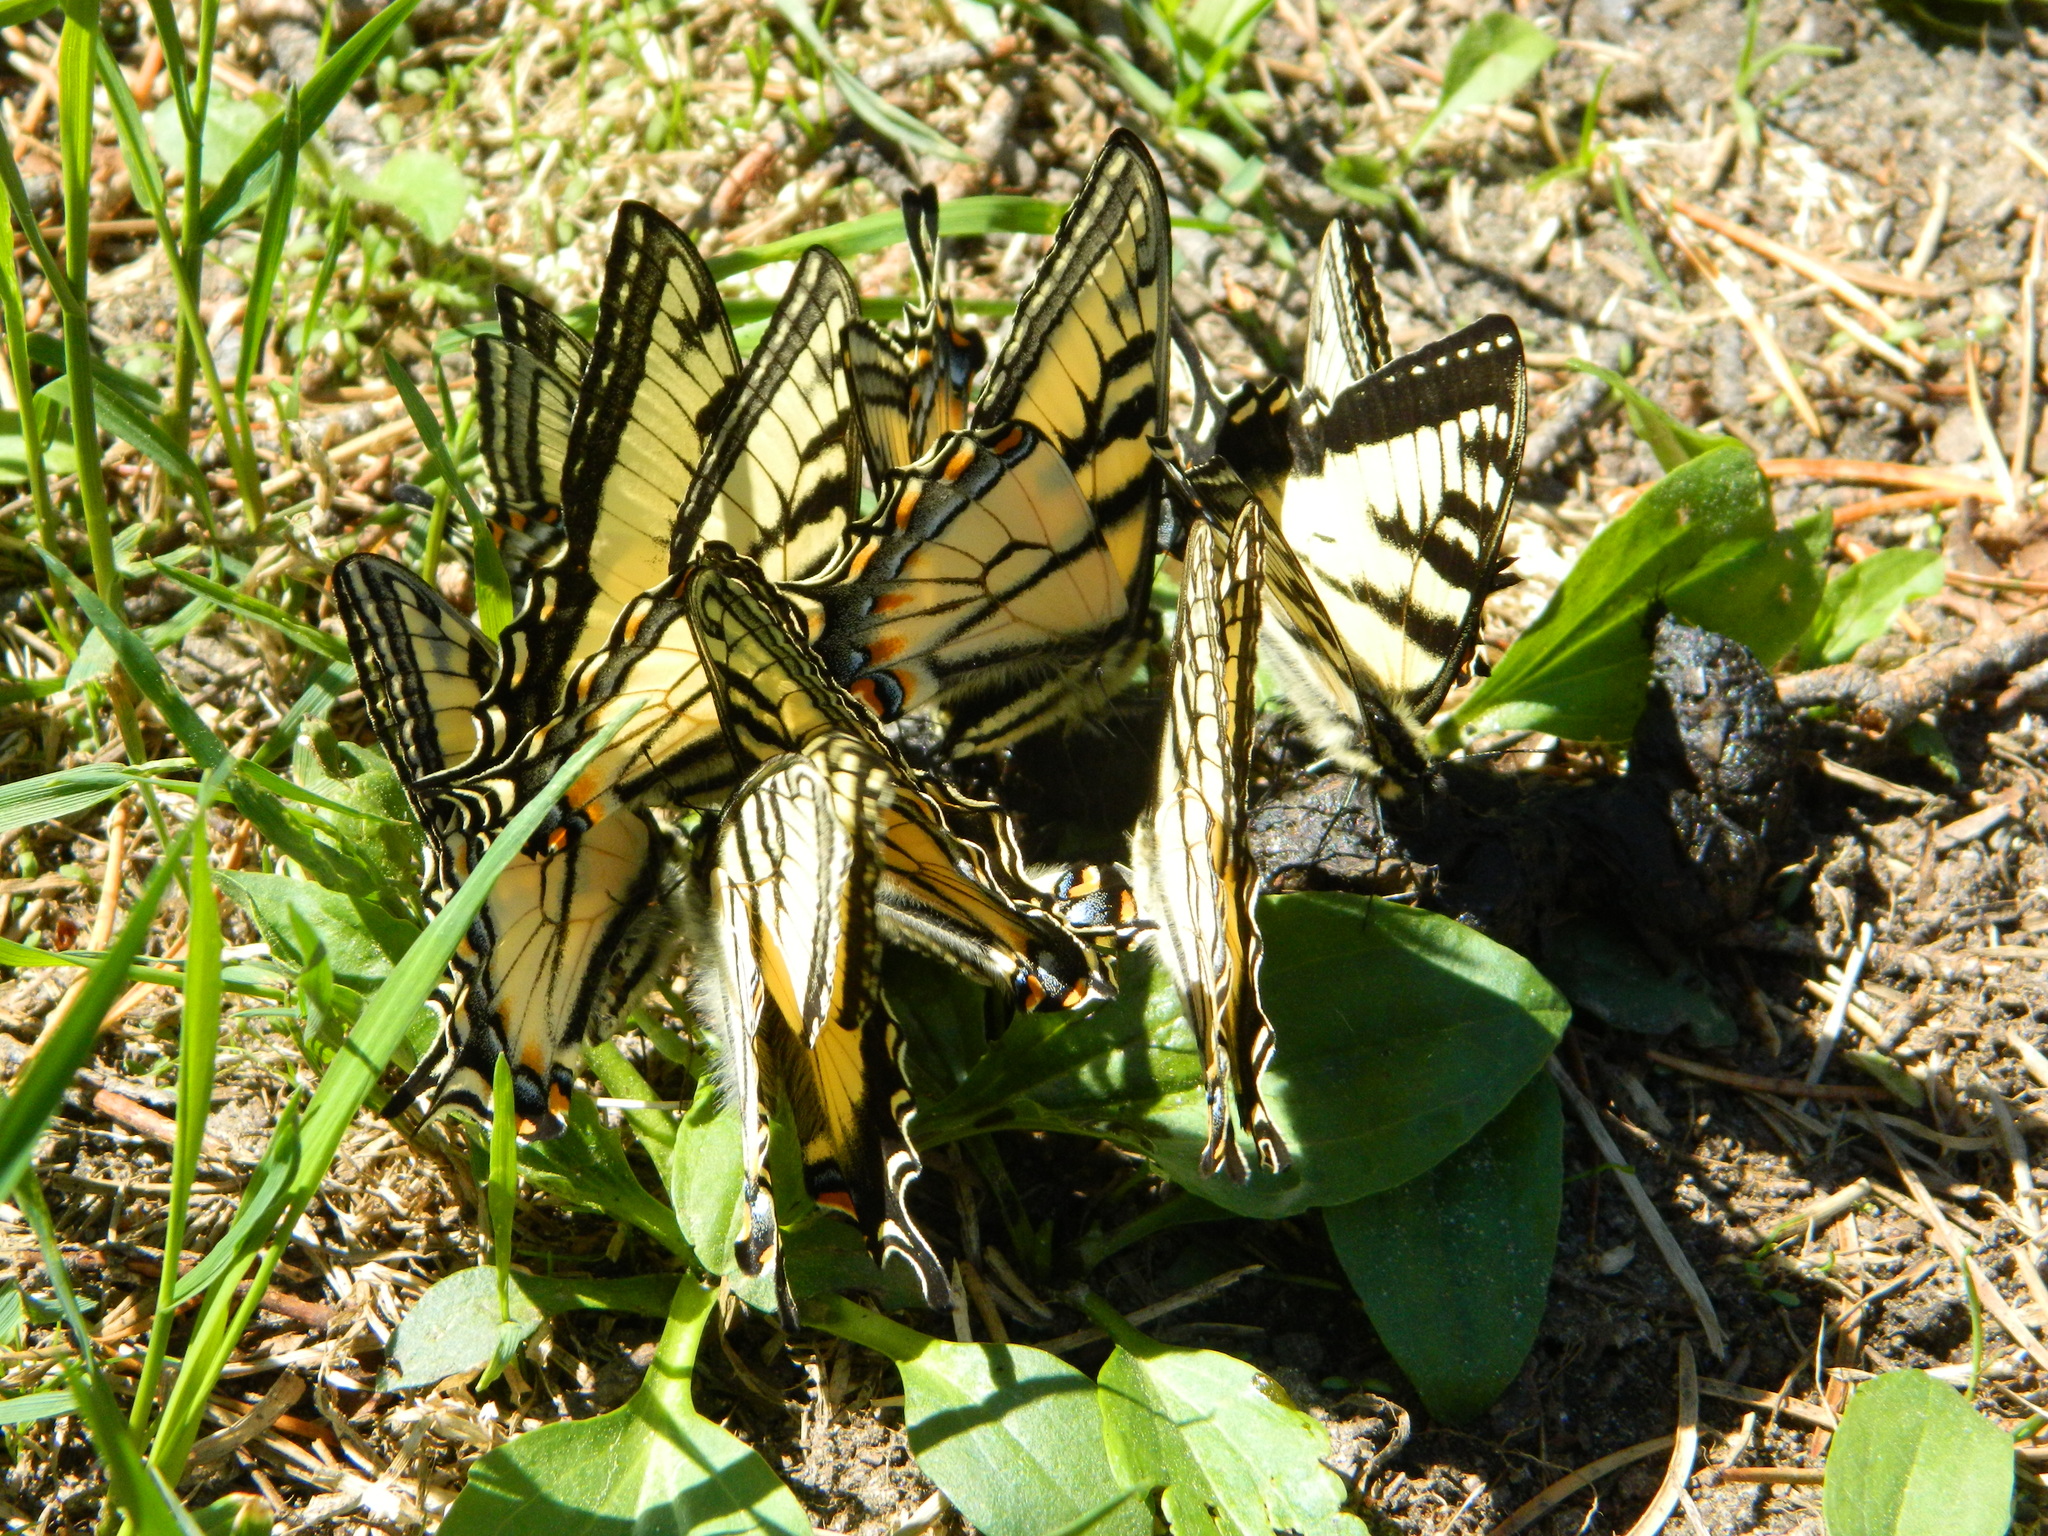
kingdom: Animalia
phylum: Arthropoda
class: Insecta
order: Lepidoptera
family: Papilionidae
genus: Papilio
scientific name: Papilio canadensis
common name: Canadian tiger swallowtail
